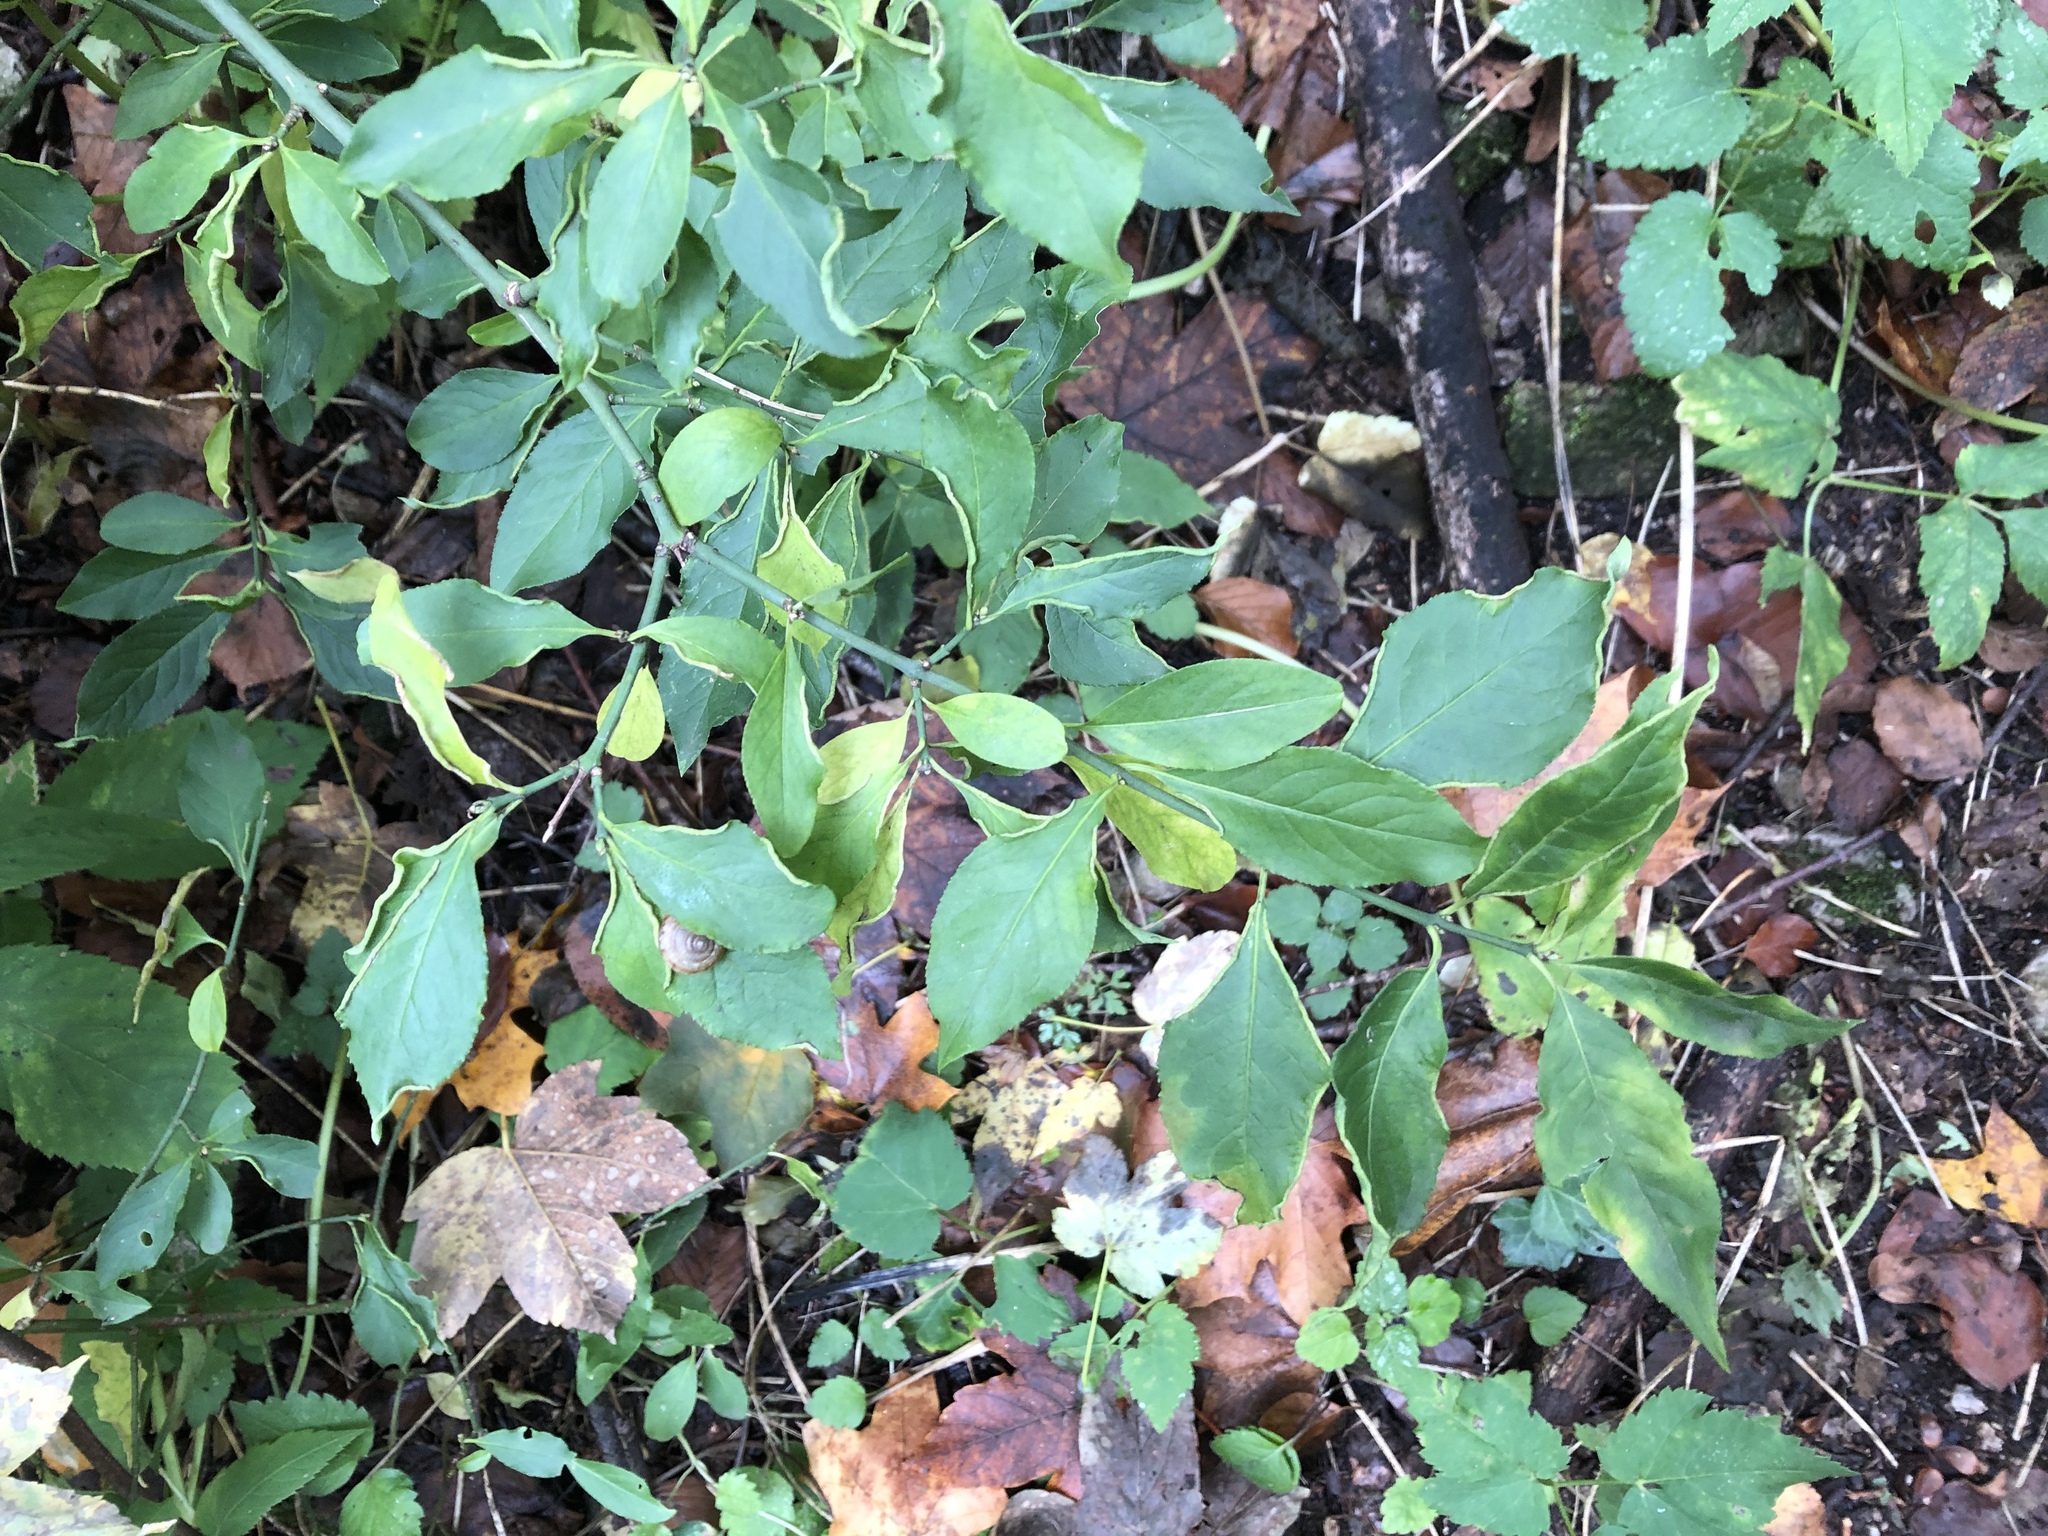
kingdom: Plantae
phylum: Tracheophyta
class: Magnoliopsida
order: Celastrales
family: Celastraceae
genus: Euonymus
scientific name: Euonymus europaeus
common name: Spindle
